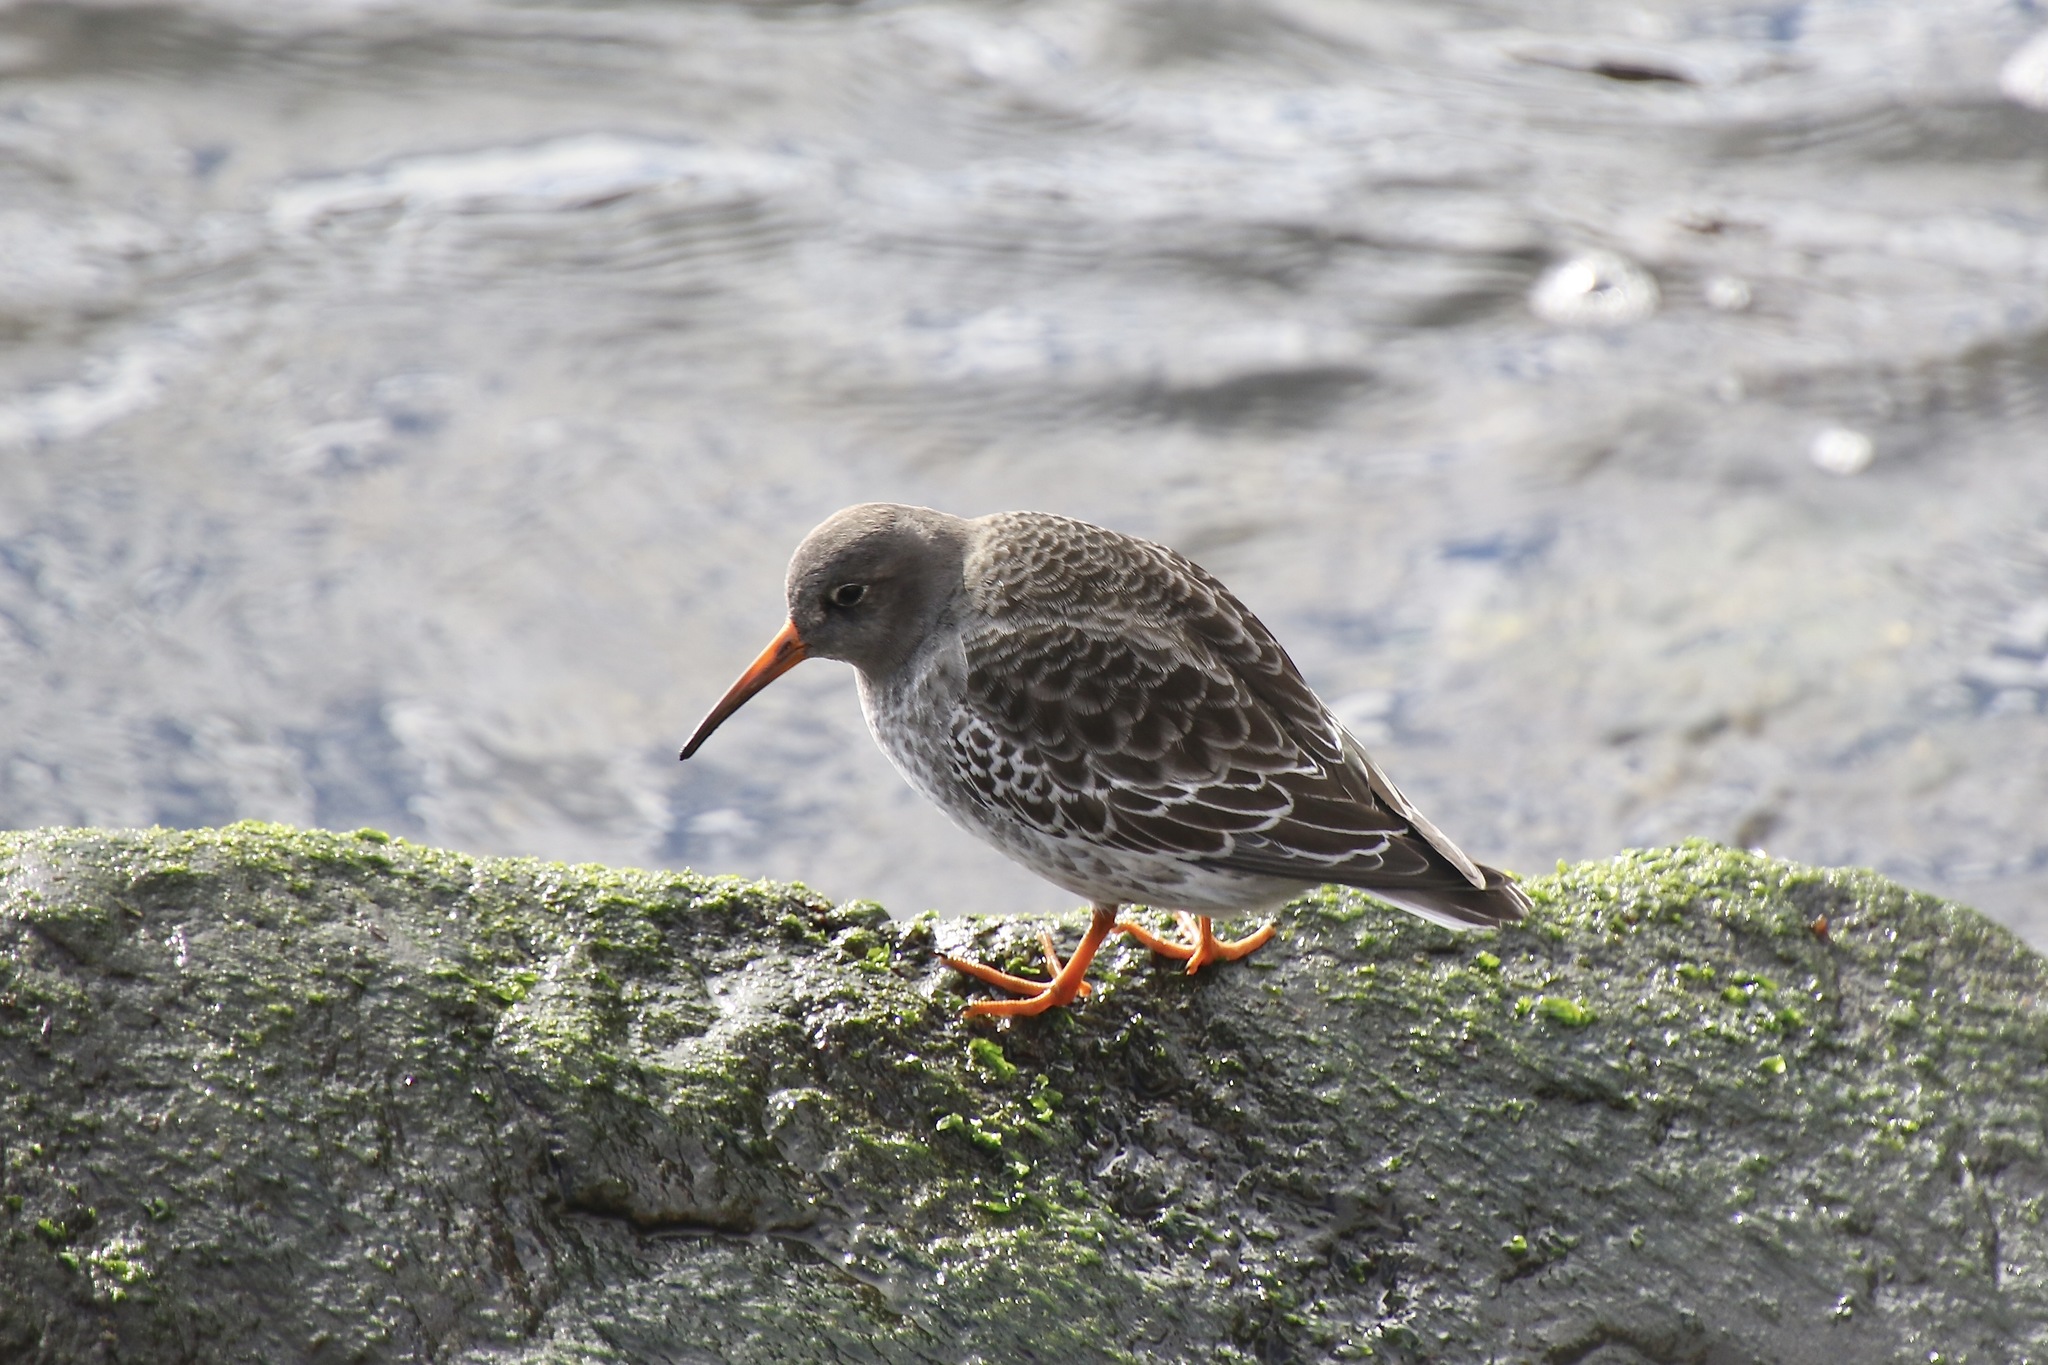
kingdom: Animalia
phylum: Chordata
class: Aves
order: Charadriiformes
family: Scolopacidae
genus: Calidris
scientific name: Calidris maritima
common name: Purple sandpiper
